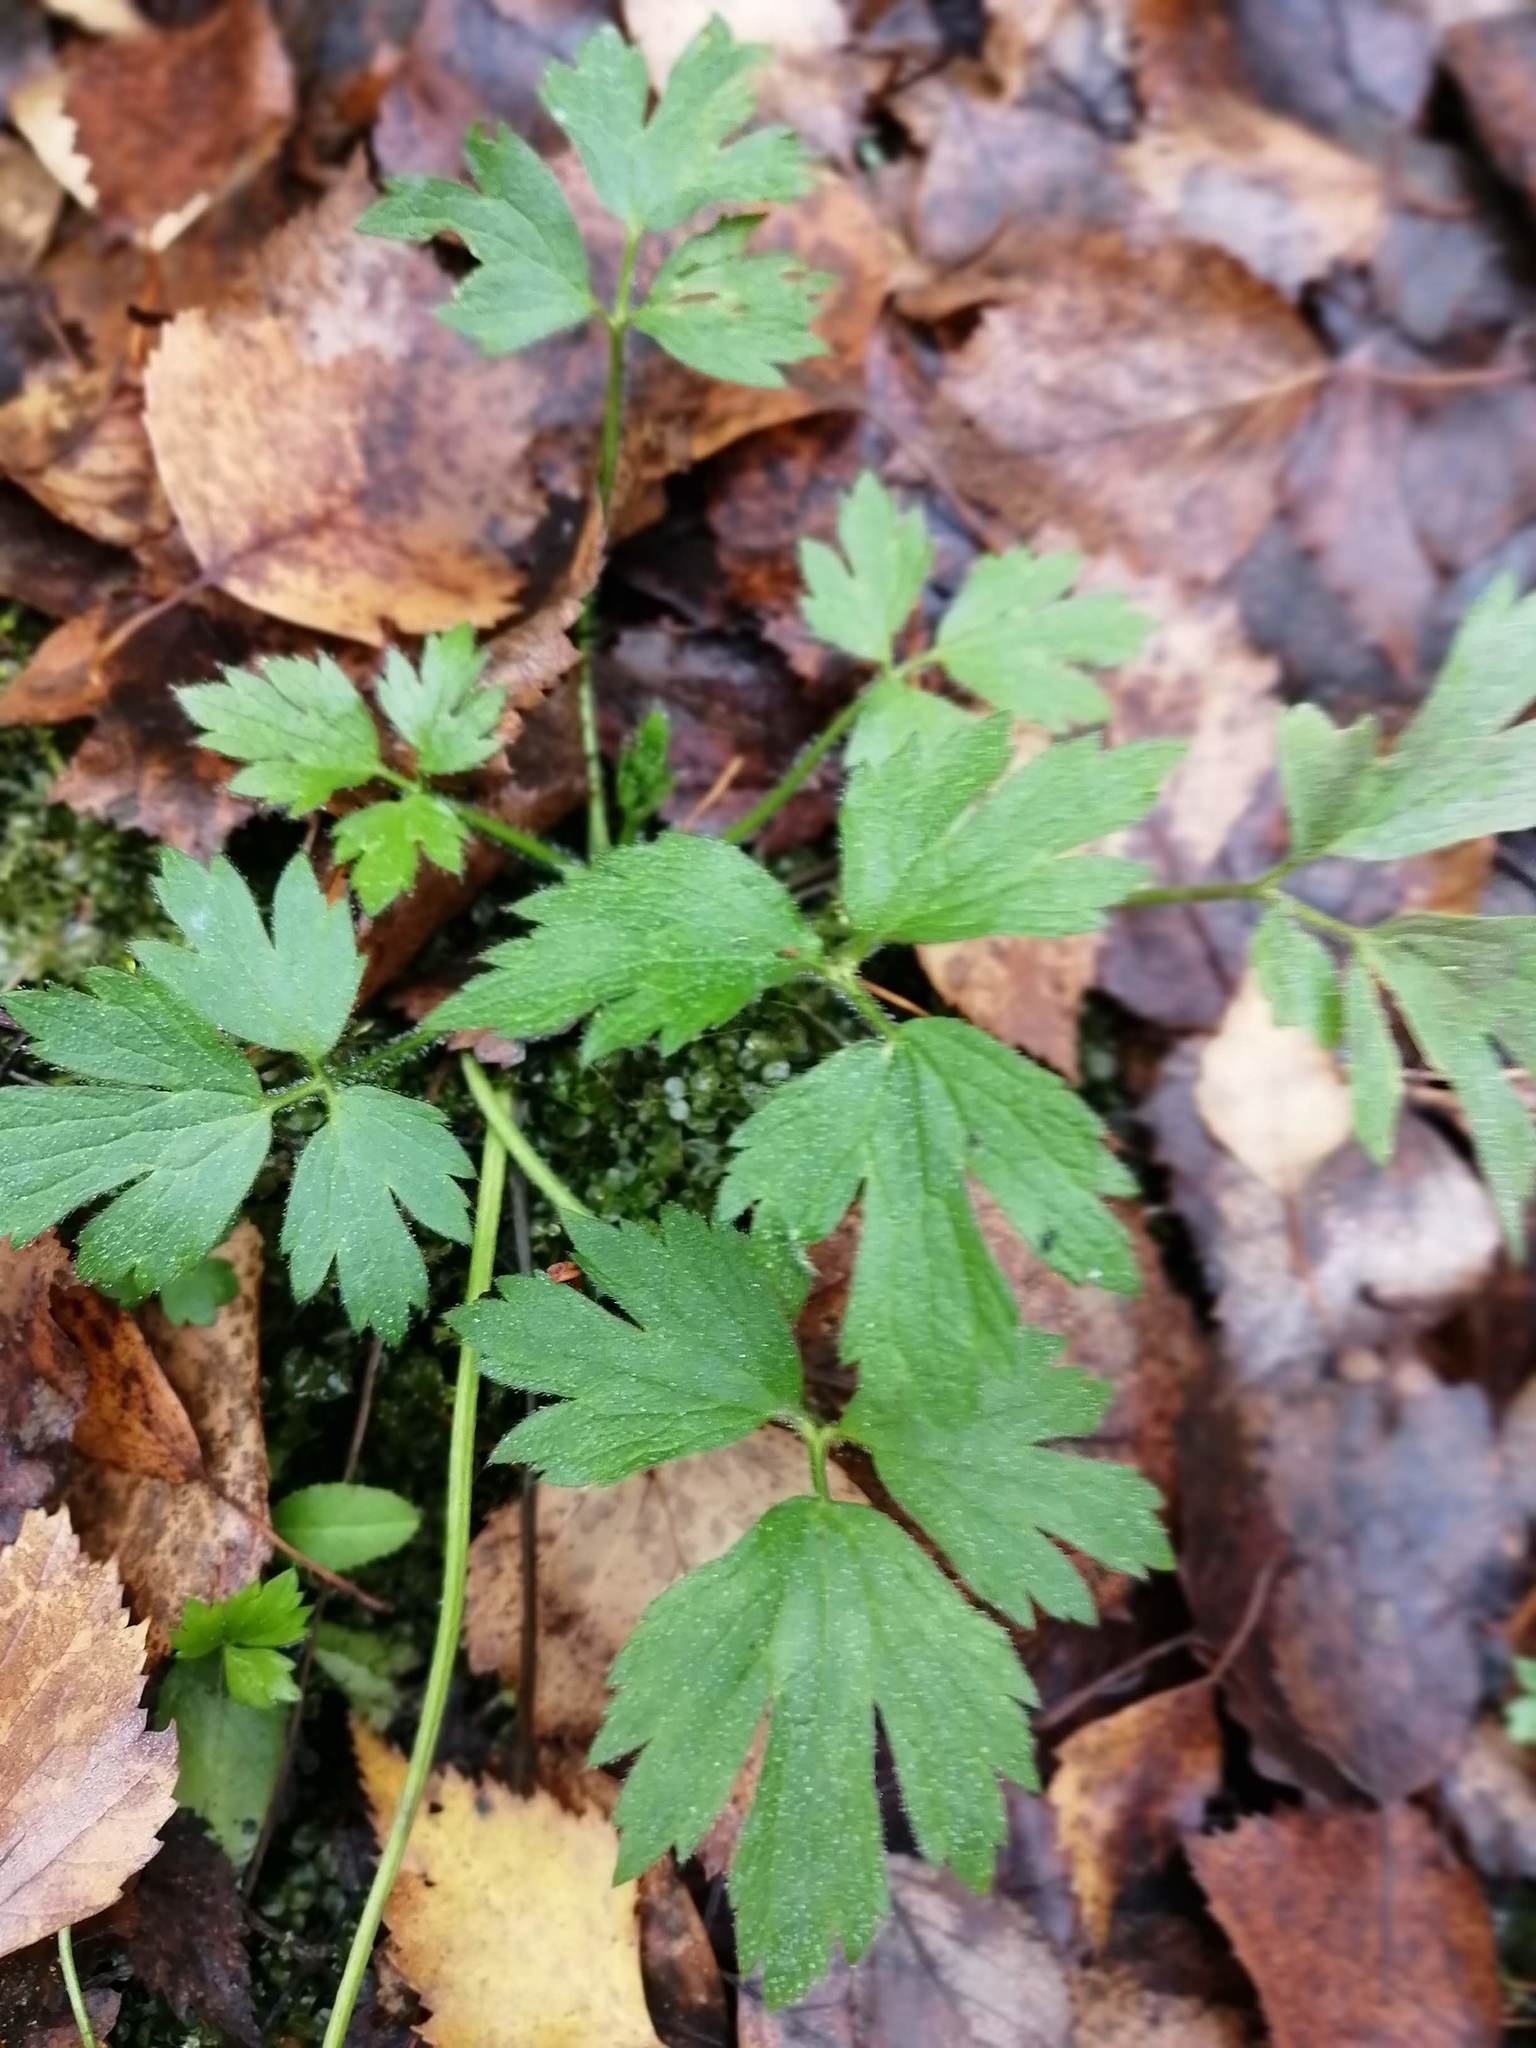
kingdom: Plantae
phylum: Tracheophyta
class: Magnoliopsida
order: Ranunculales
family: Ranunculaceae
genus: Ranunculus
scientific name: Ranunculus repens
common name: Creeping buttercup
